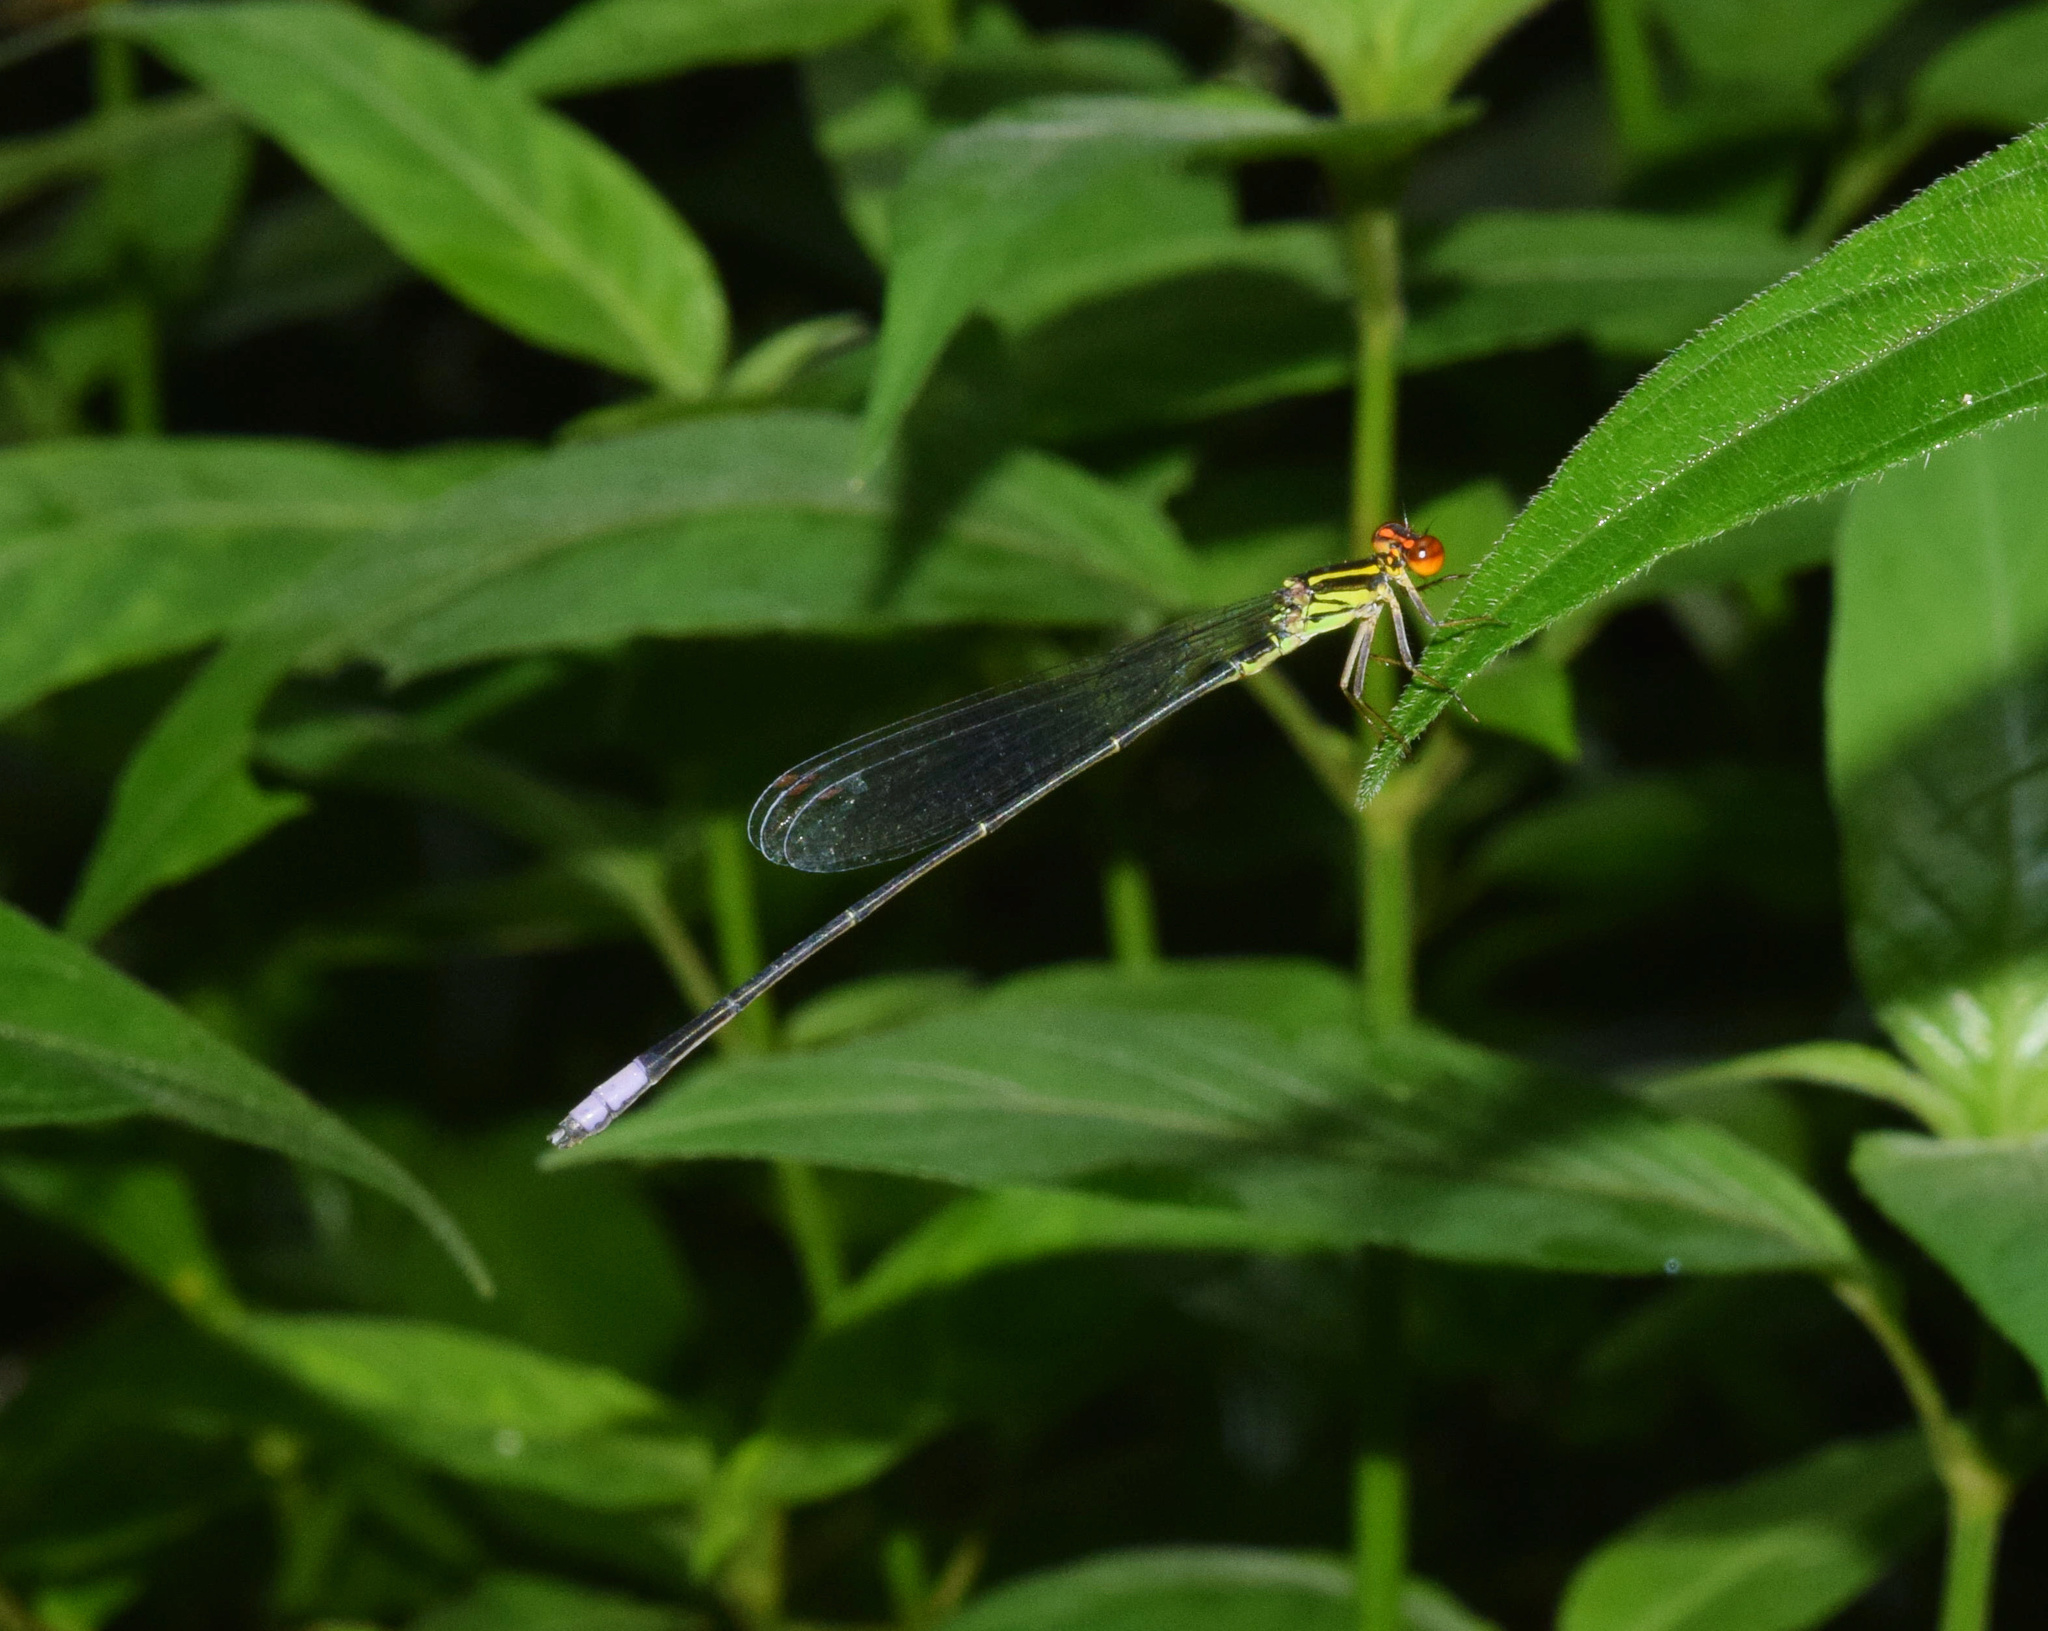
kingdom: Animalia
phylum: Arthropoda
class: Insecta
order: Odonata
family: Coenagrionidae
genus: Pseudagrion
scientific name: Pseudagrion hageni
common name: Painted sprite
